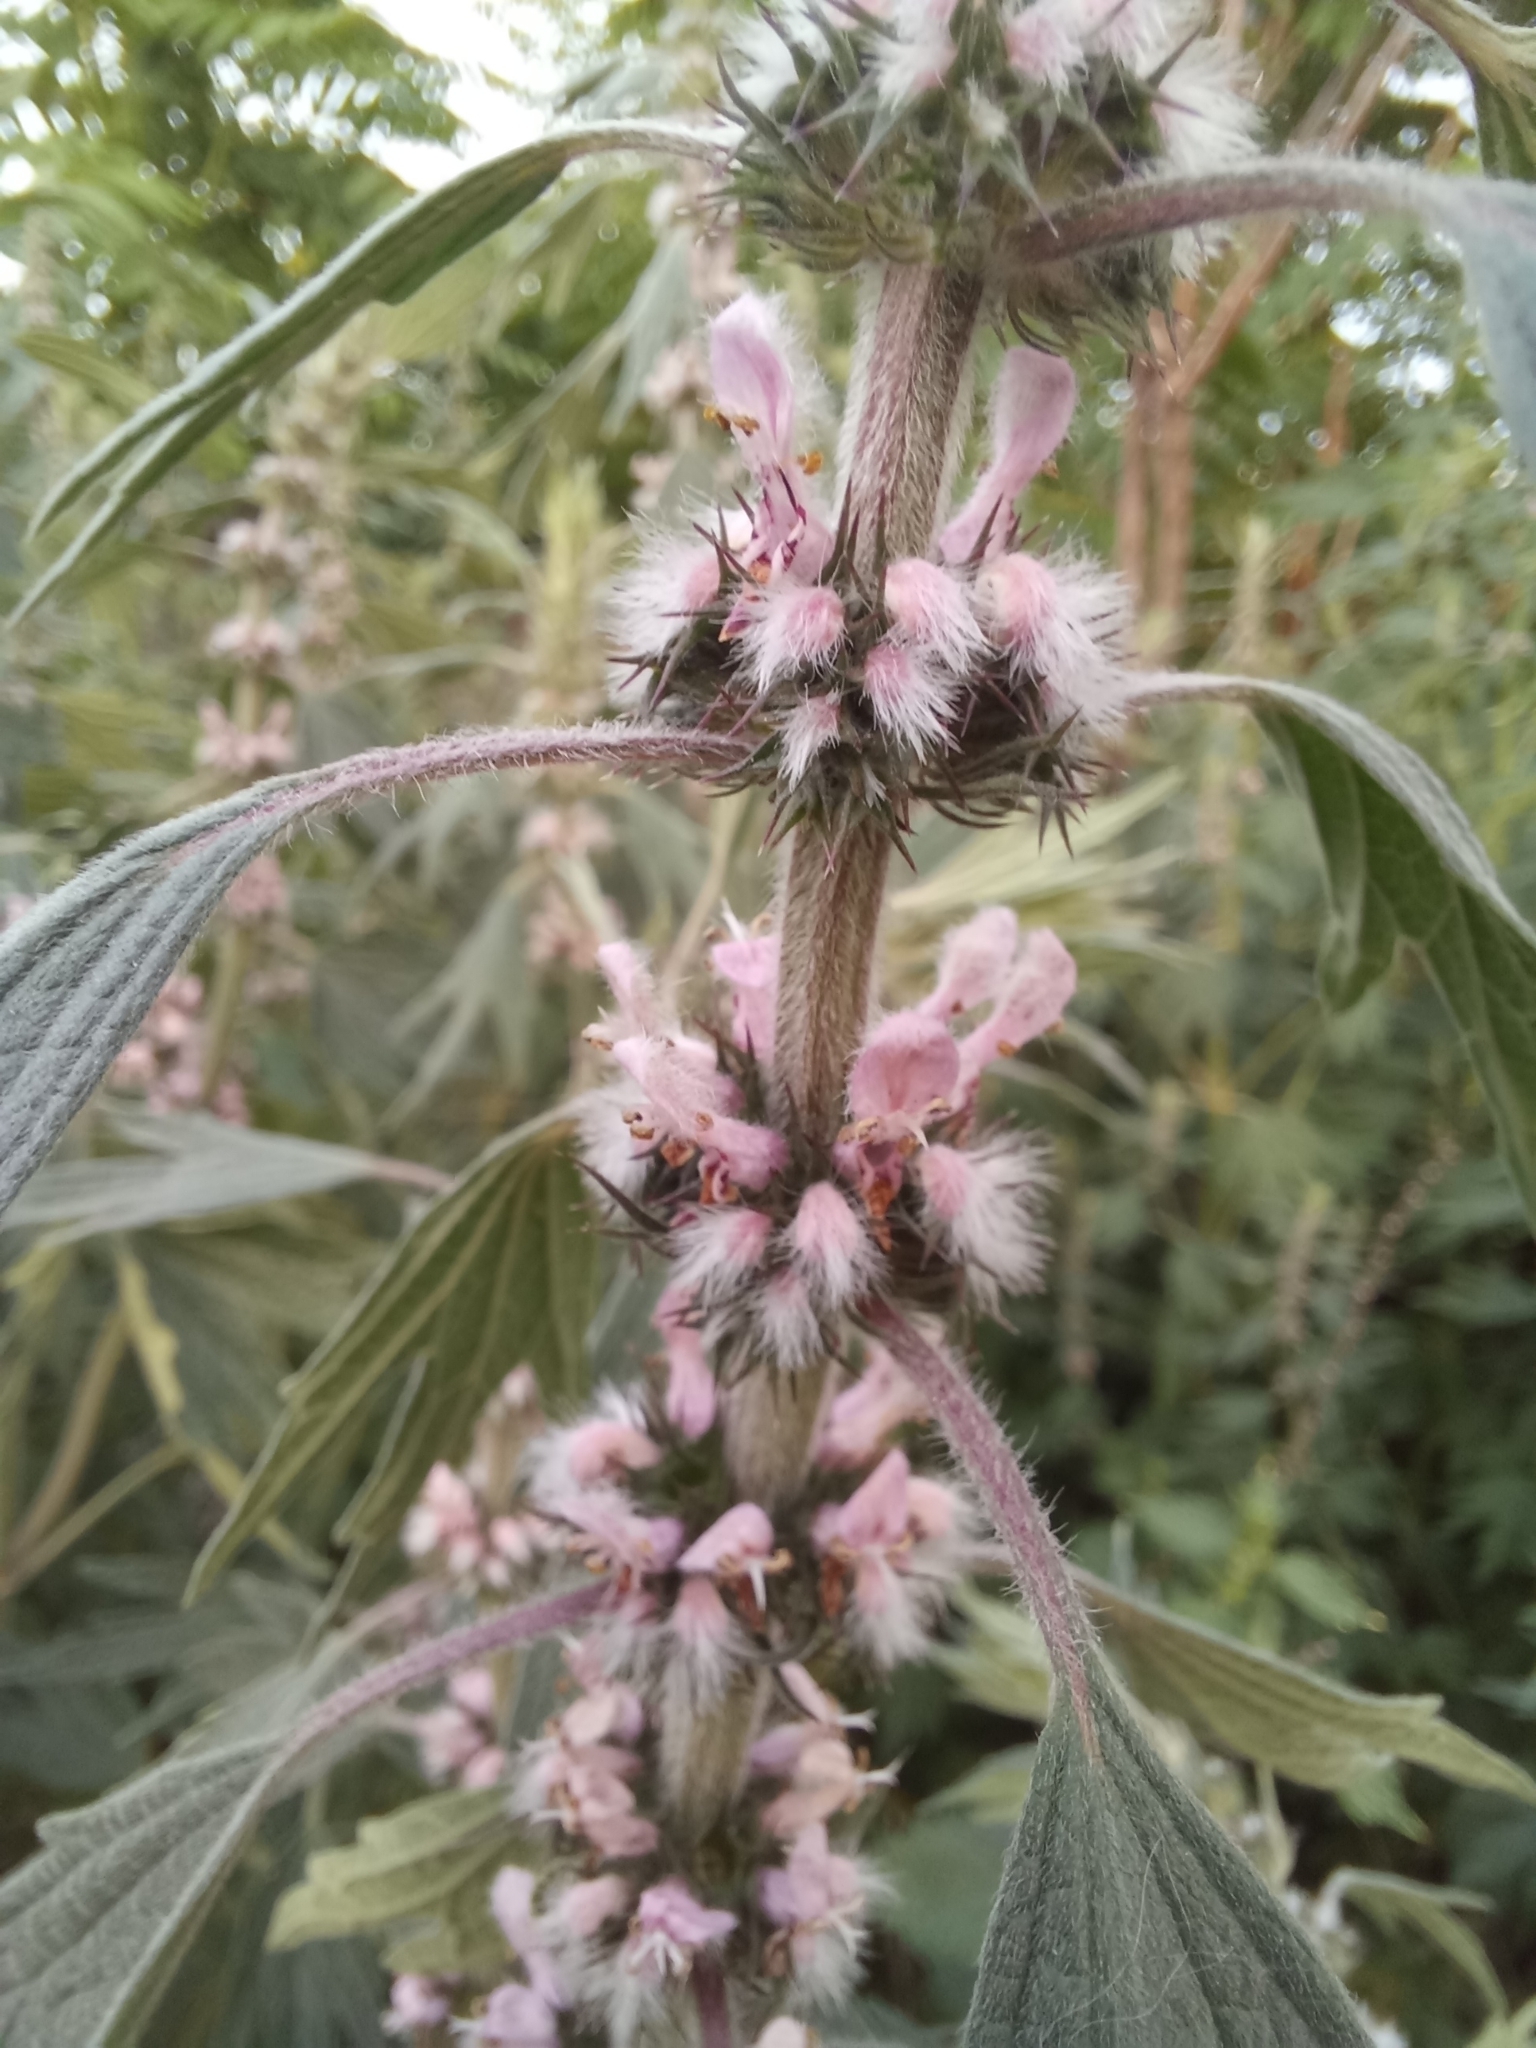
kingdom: Plantae
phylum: Tracheophyta
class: Magnoliopsida
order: Lamiales
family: Lamiaceae
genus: Leonurus
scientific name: Leonurus quinquelobatus
